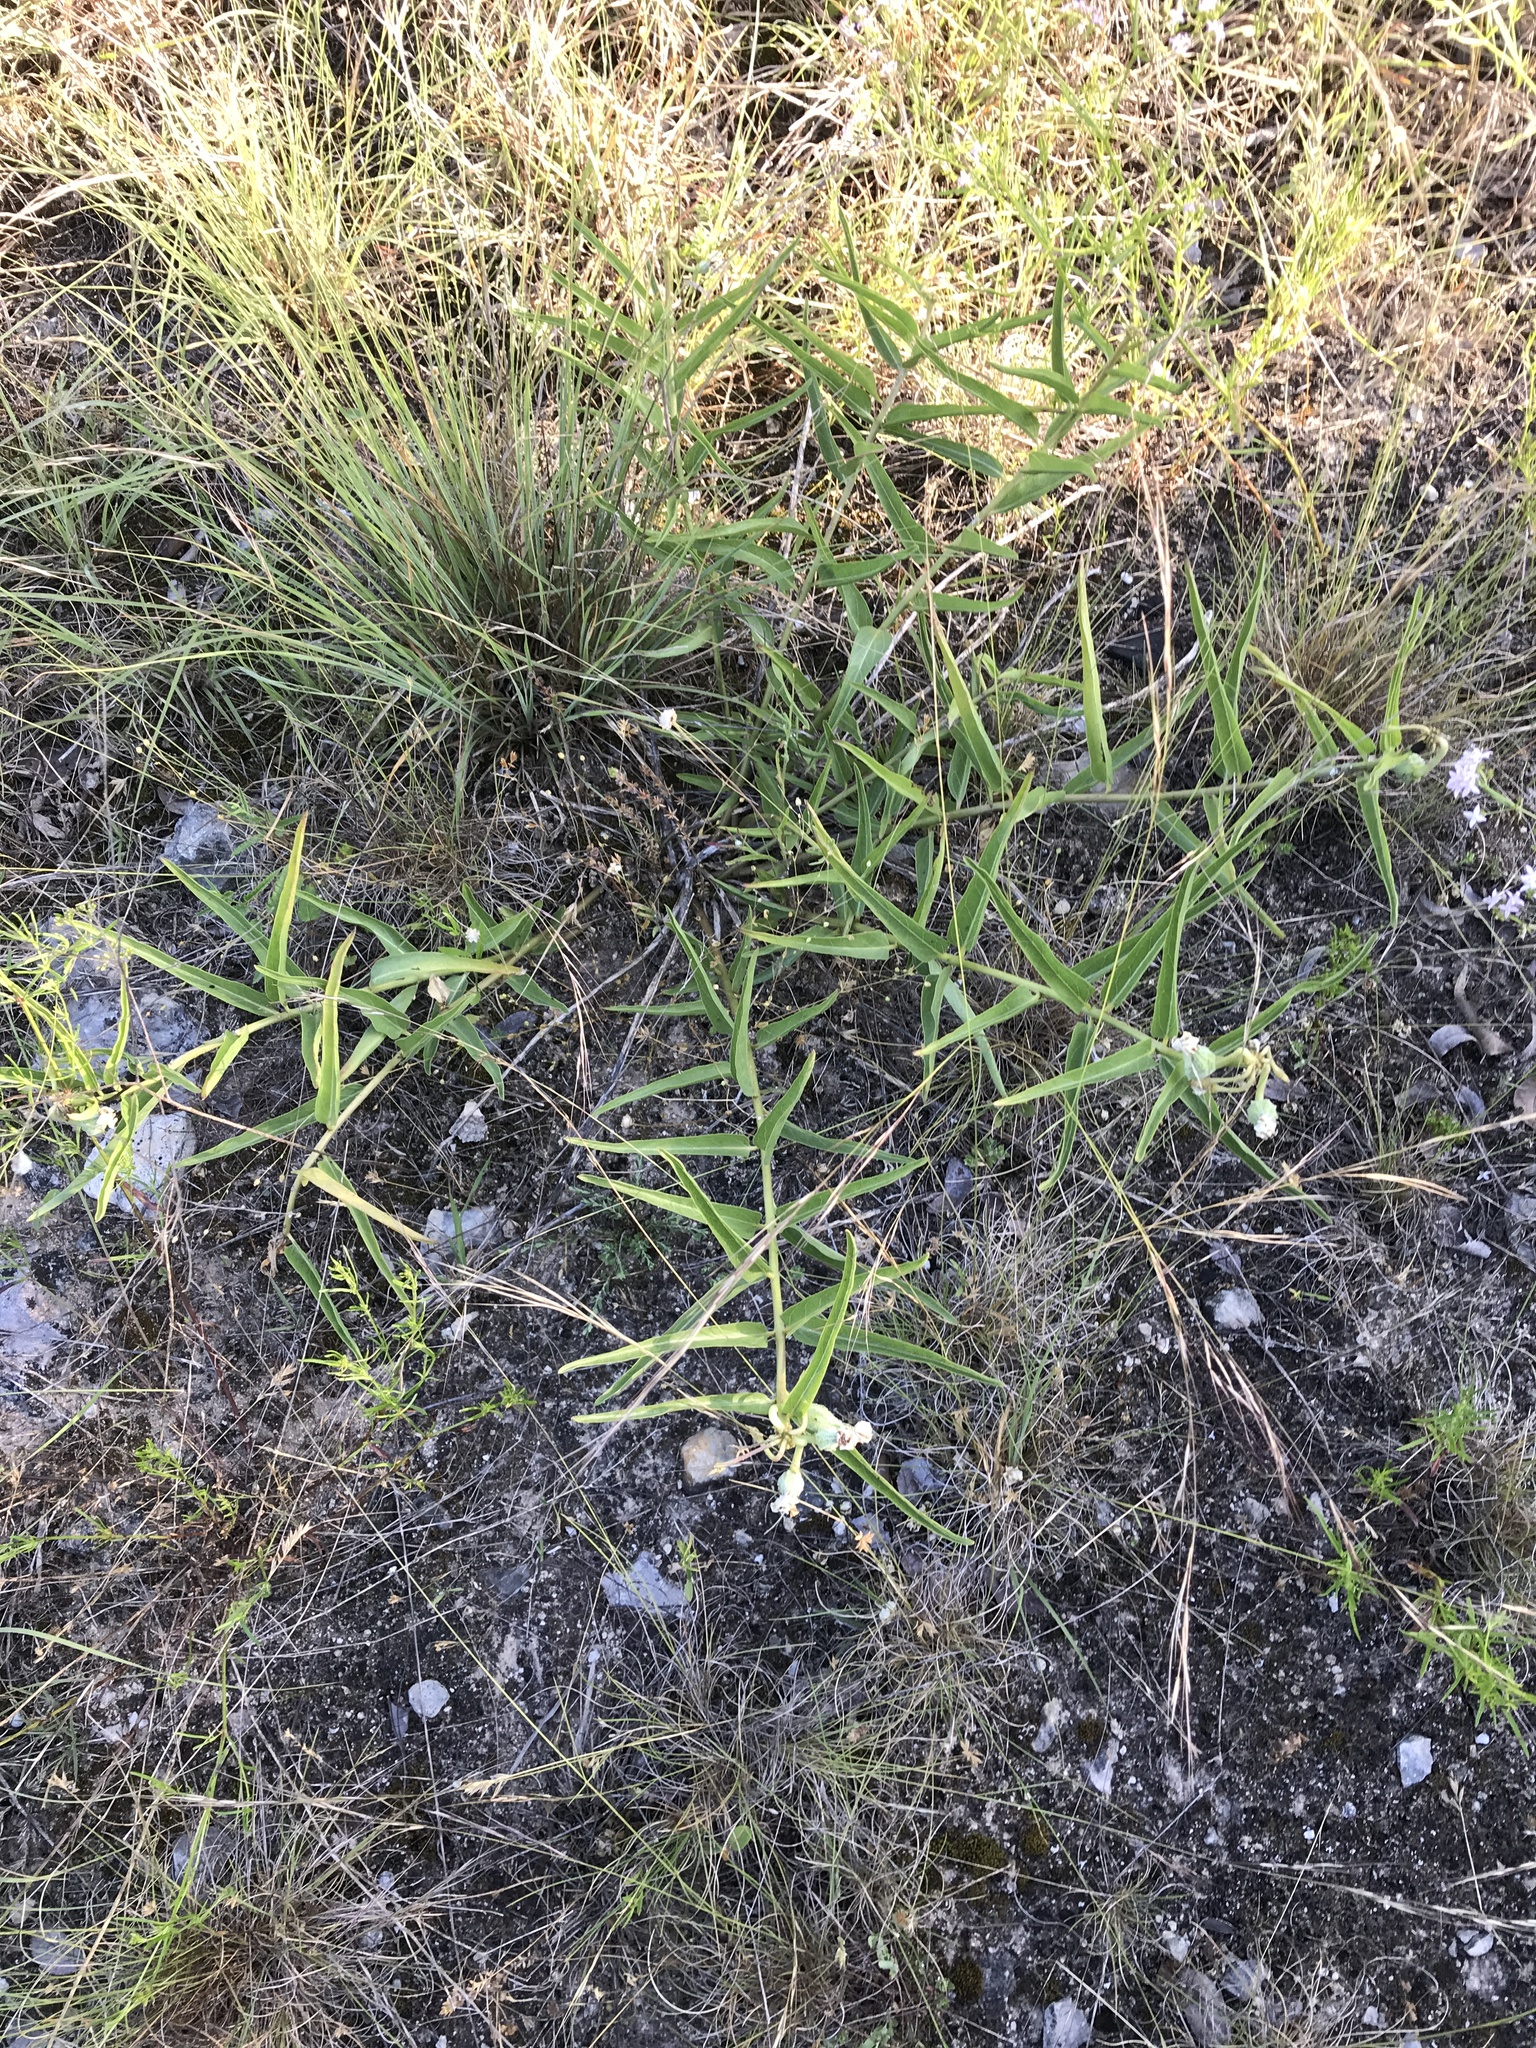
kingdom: Plantae
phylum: Tracheophyta
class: Magnoliopsida
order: Gentianales
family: Apocynaceae
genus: Asclepias
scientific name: Asclepias asperula
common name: Antelope horns
